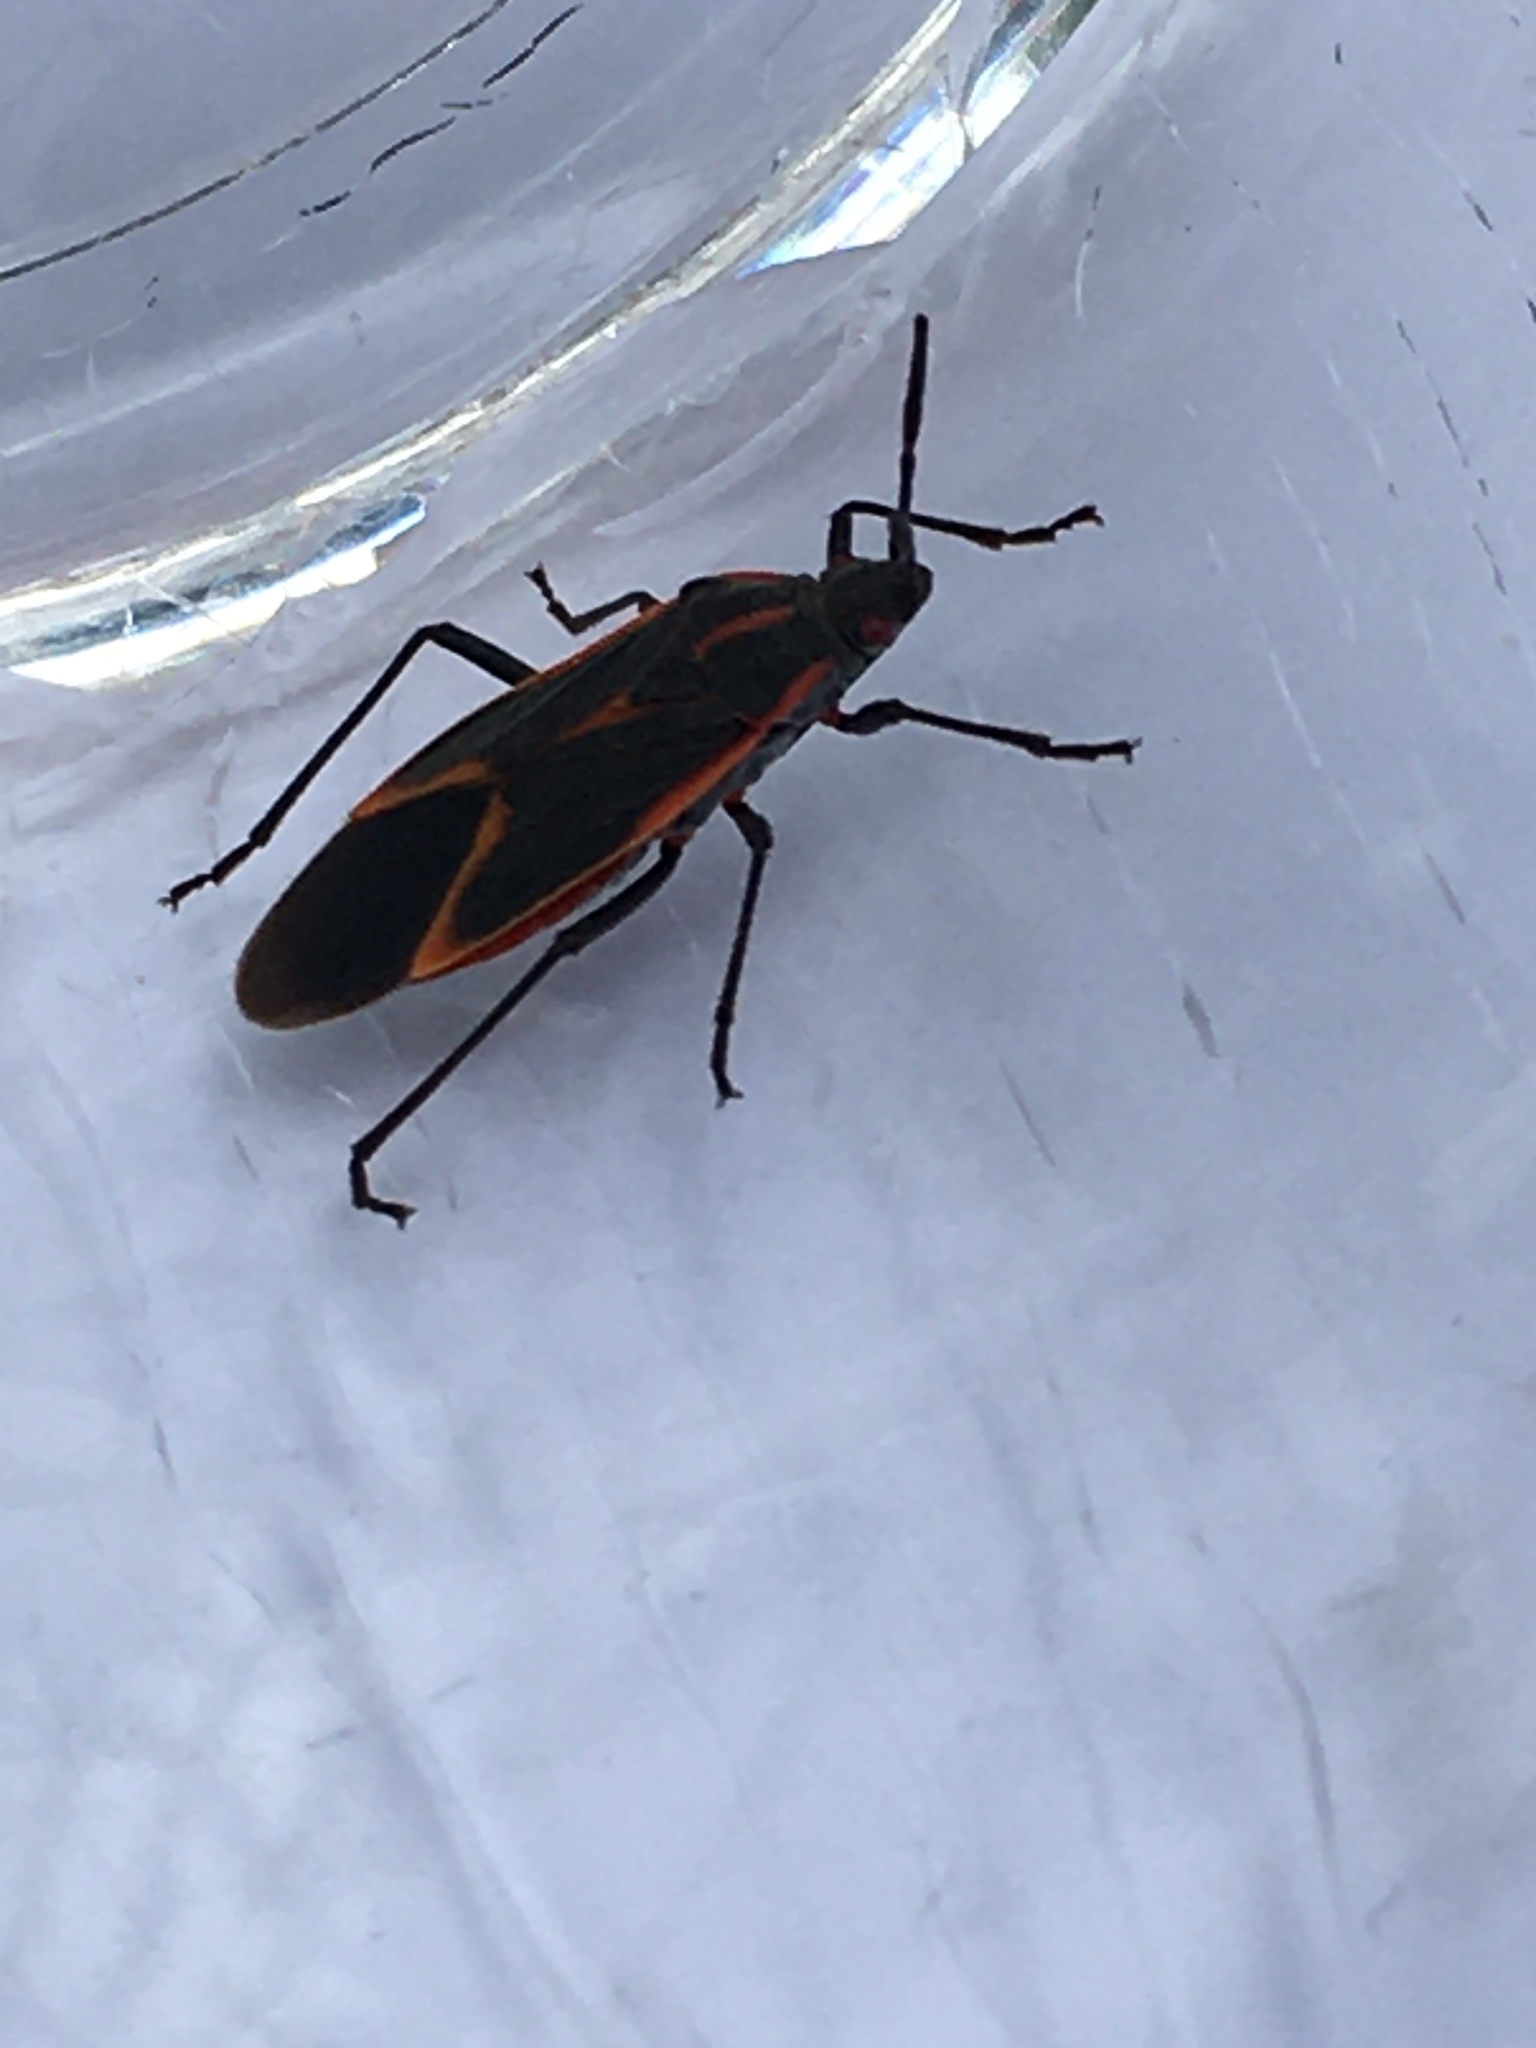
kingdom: Animalia
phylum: Arthropoda
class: Insecta
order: Hemiptera
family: Rhopalidae
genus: Boisea
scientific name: Boisea trivittata
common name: Boxelder bug
